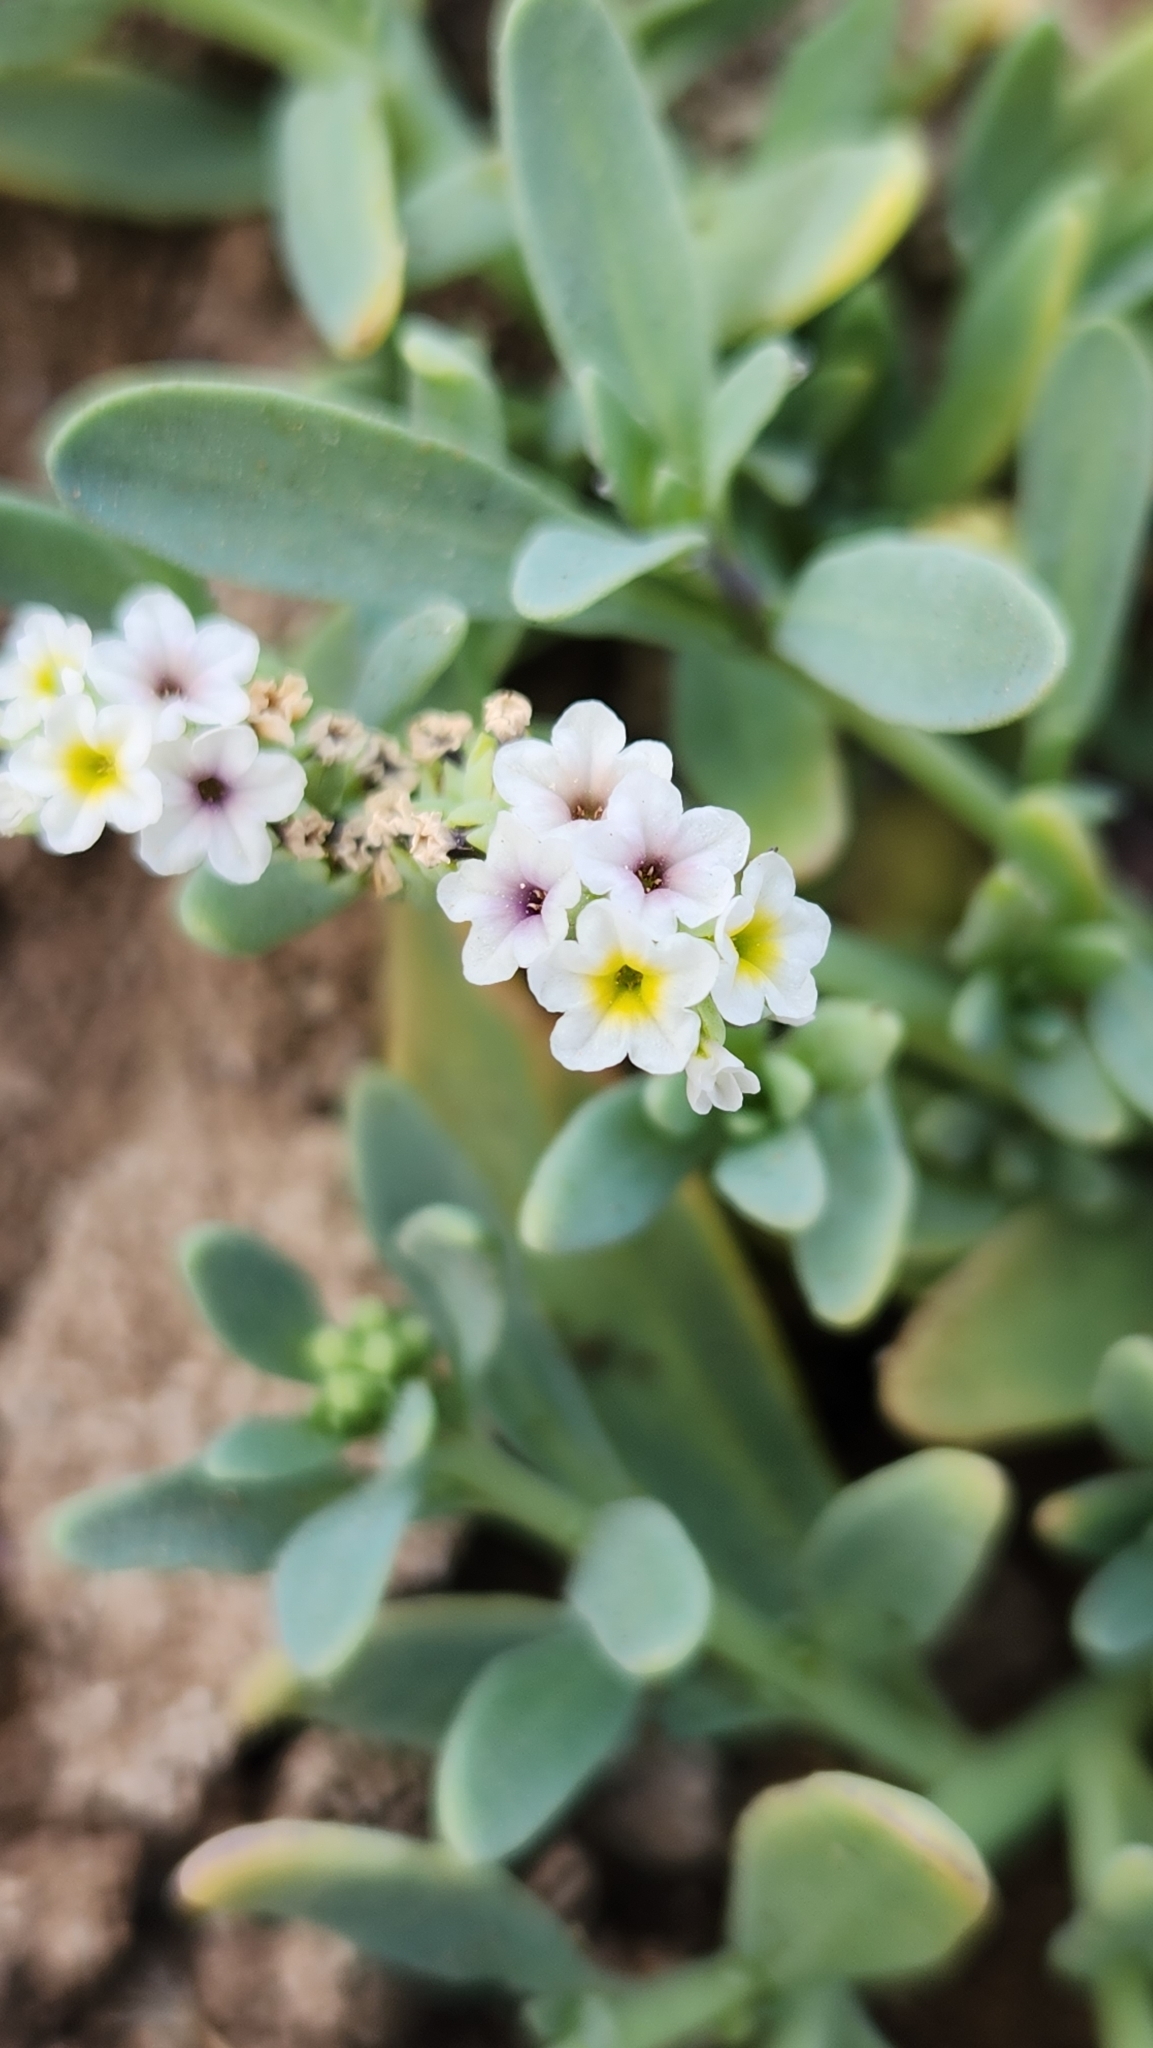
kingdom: Plantae
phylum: Tracheophyta
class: Magnoliopsida
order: Boraginales
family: Heliotropiaceae
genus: Heliotropium
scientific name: Heliotropium curassavicum
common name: Seaside heliotrope
